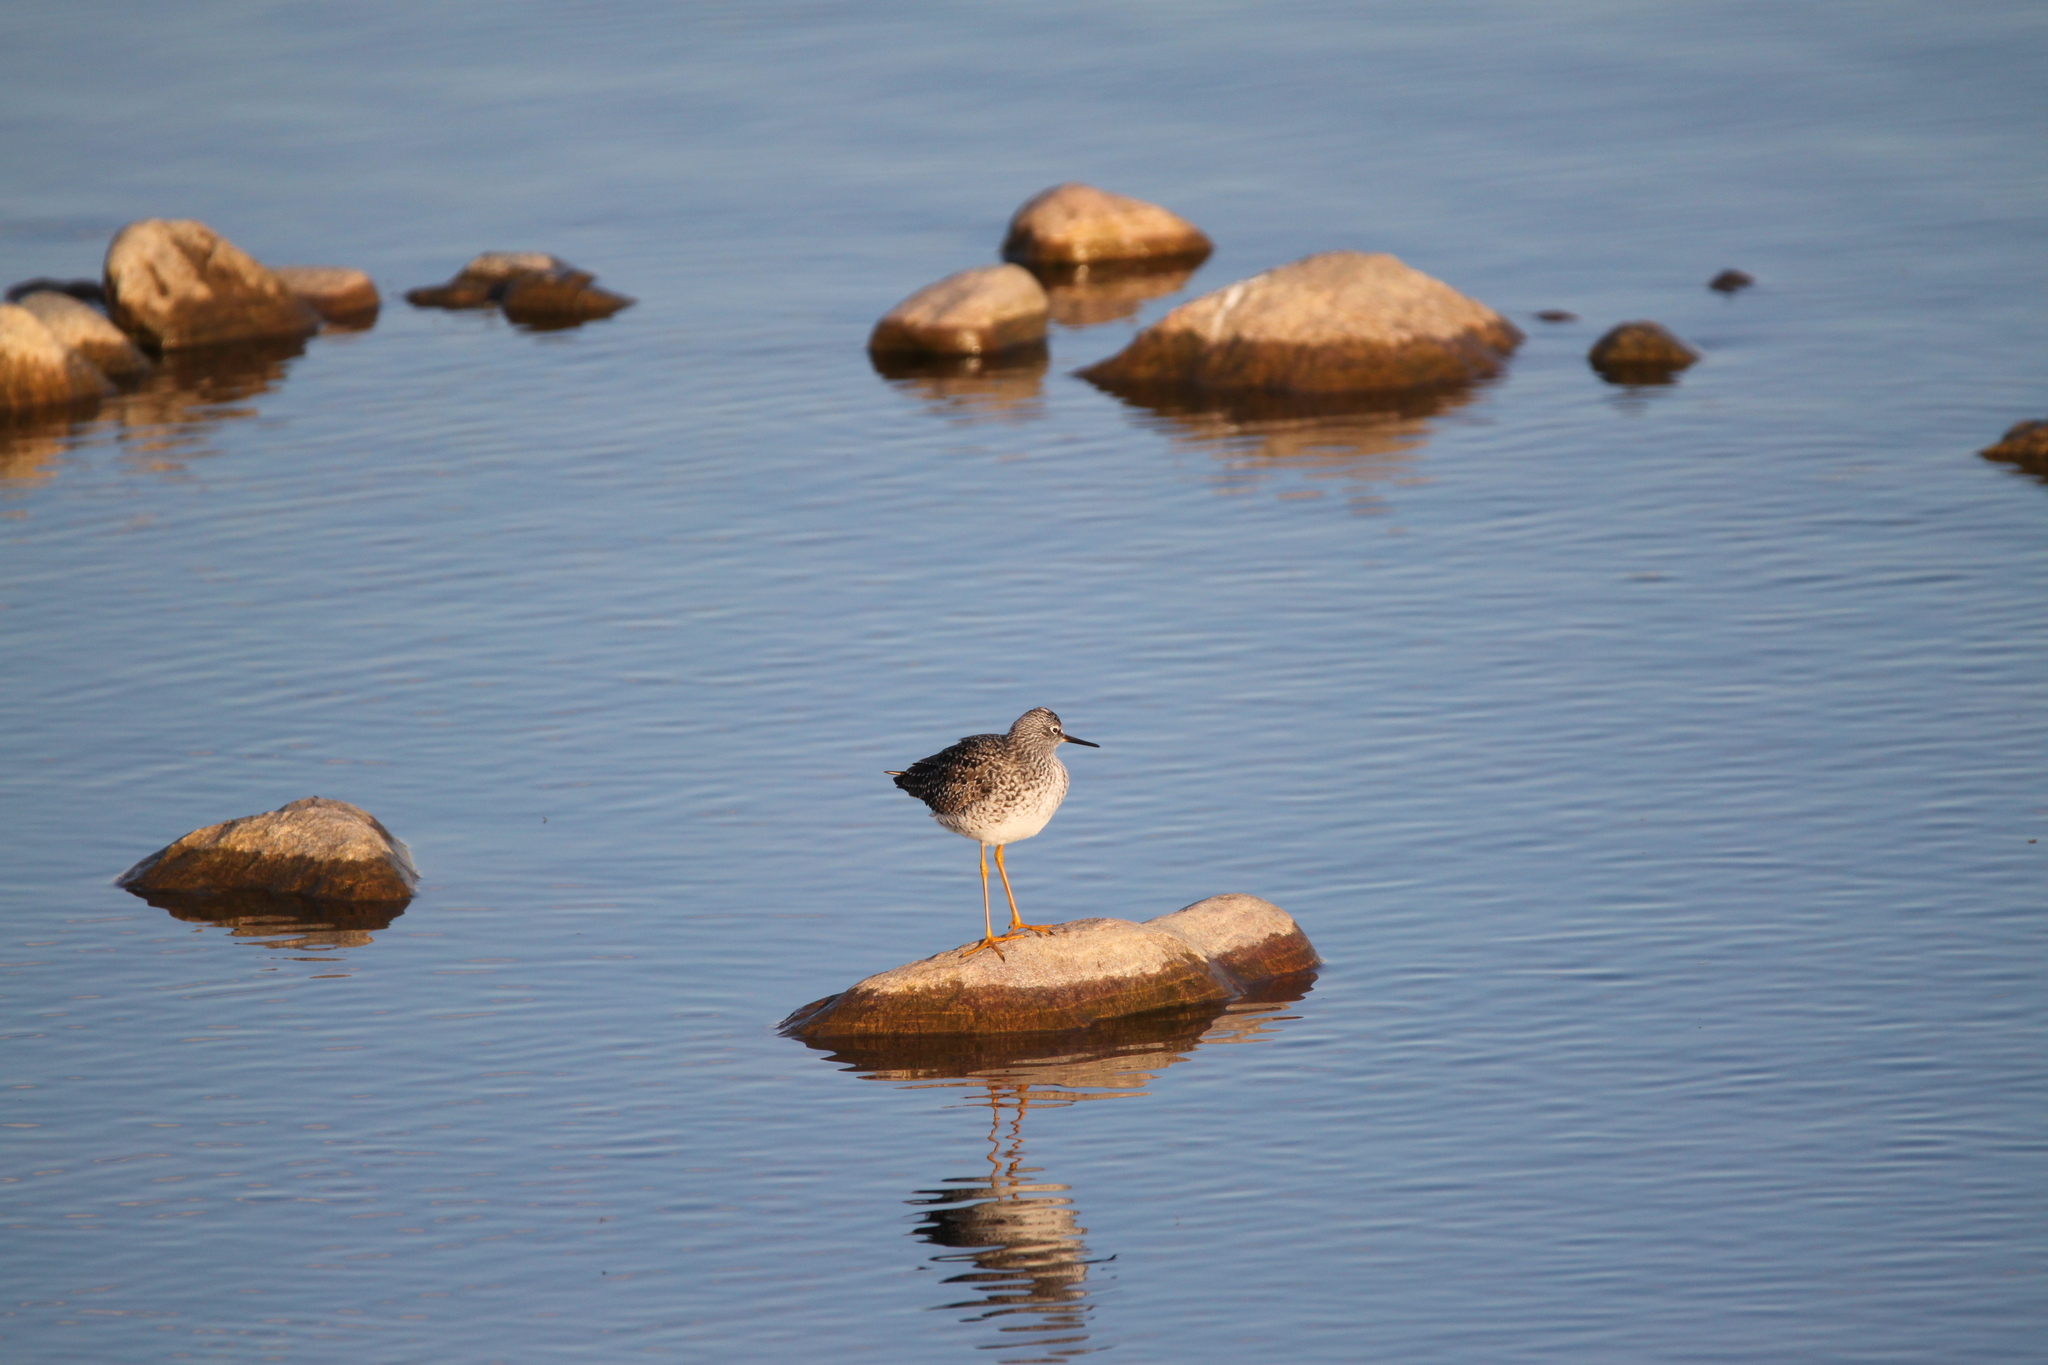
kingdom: Animalia
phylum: Chordata
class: Aves
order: Charadriiformes
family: Scolopacidae
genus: Tringa
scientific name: Tringa flavipes
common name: Lesser yellowlegs
